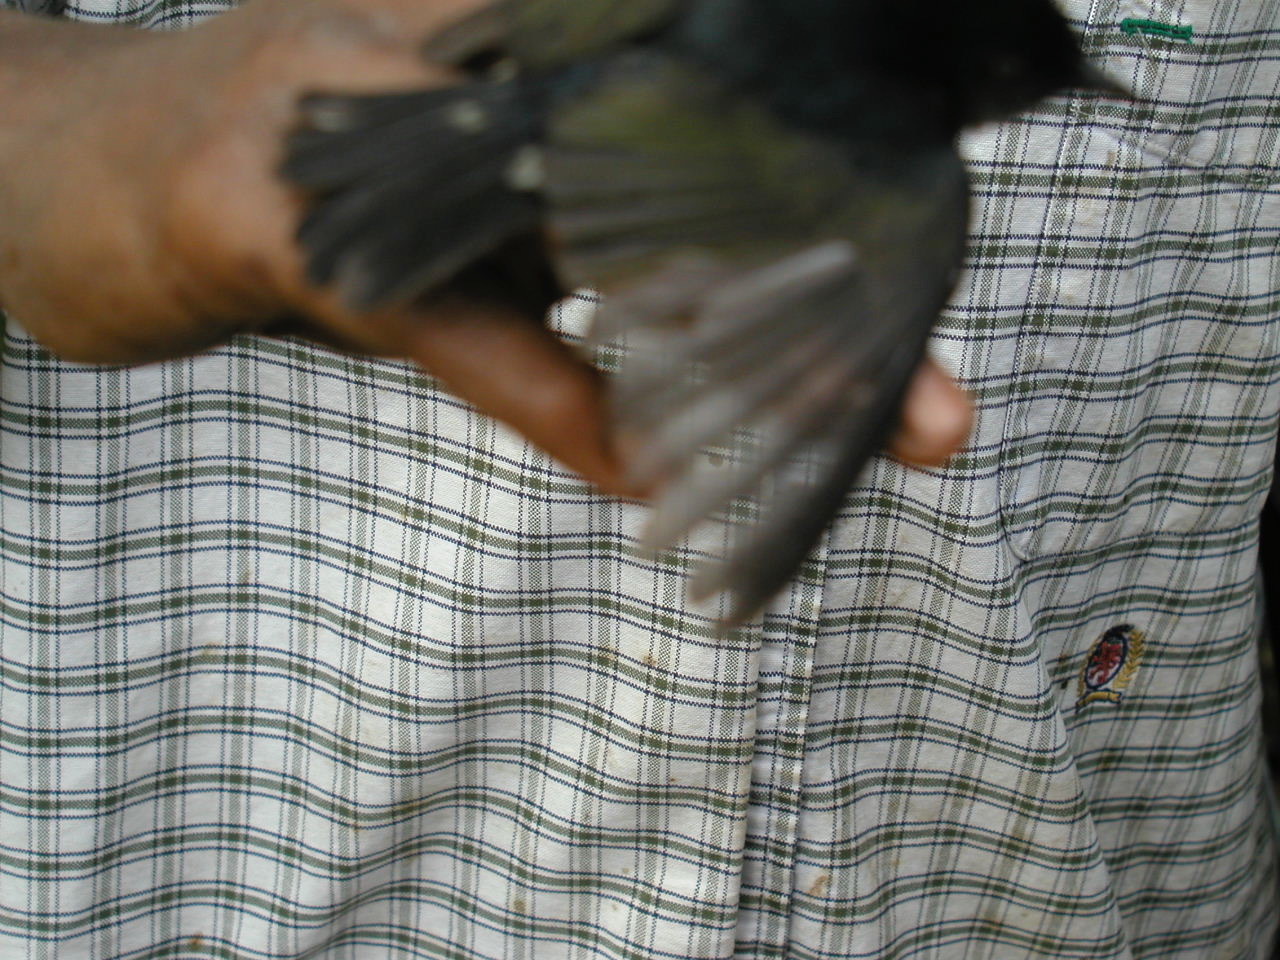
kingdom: Animalia
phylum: Chordata
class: Aves
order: Passeriformes
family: Melanocharitidae
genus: Melanocharis
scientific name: Melanocharis nigra
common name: Black berrypecker
